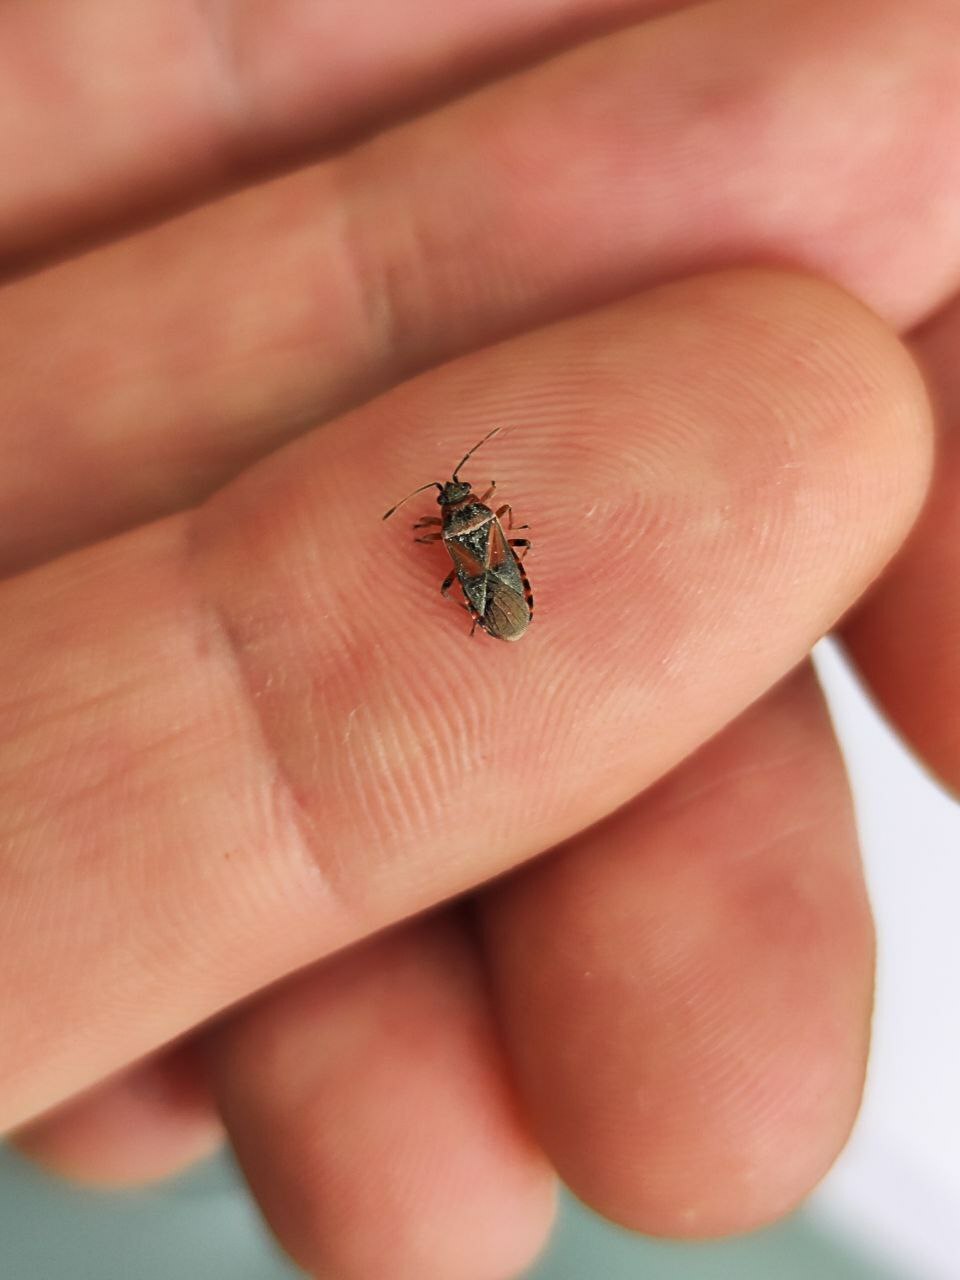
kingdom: Animalia
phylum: Arthropoda
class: Insecta
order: Hemiptera
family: Lygaeidae
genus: Arocatus
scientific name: Arocatus melanocephalus
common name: Lygaeid bug
